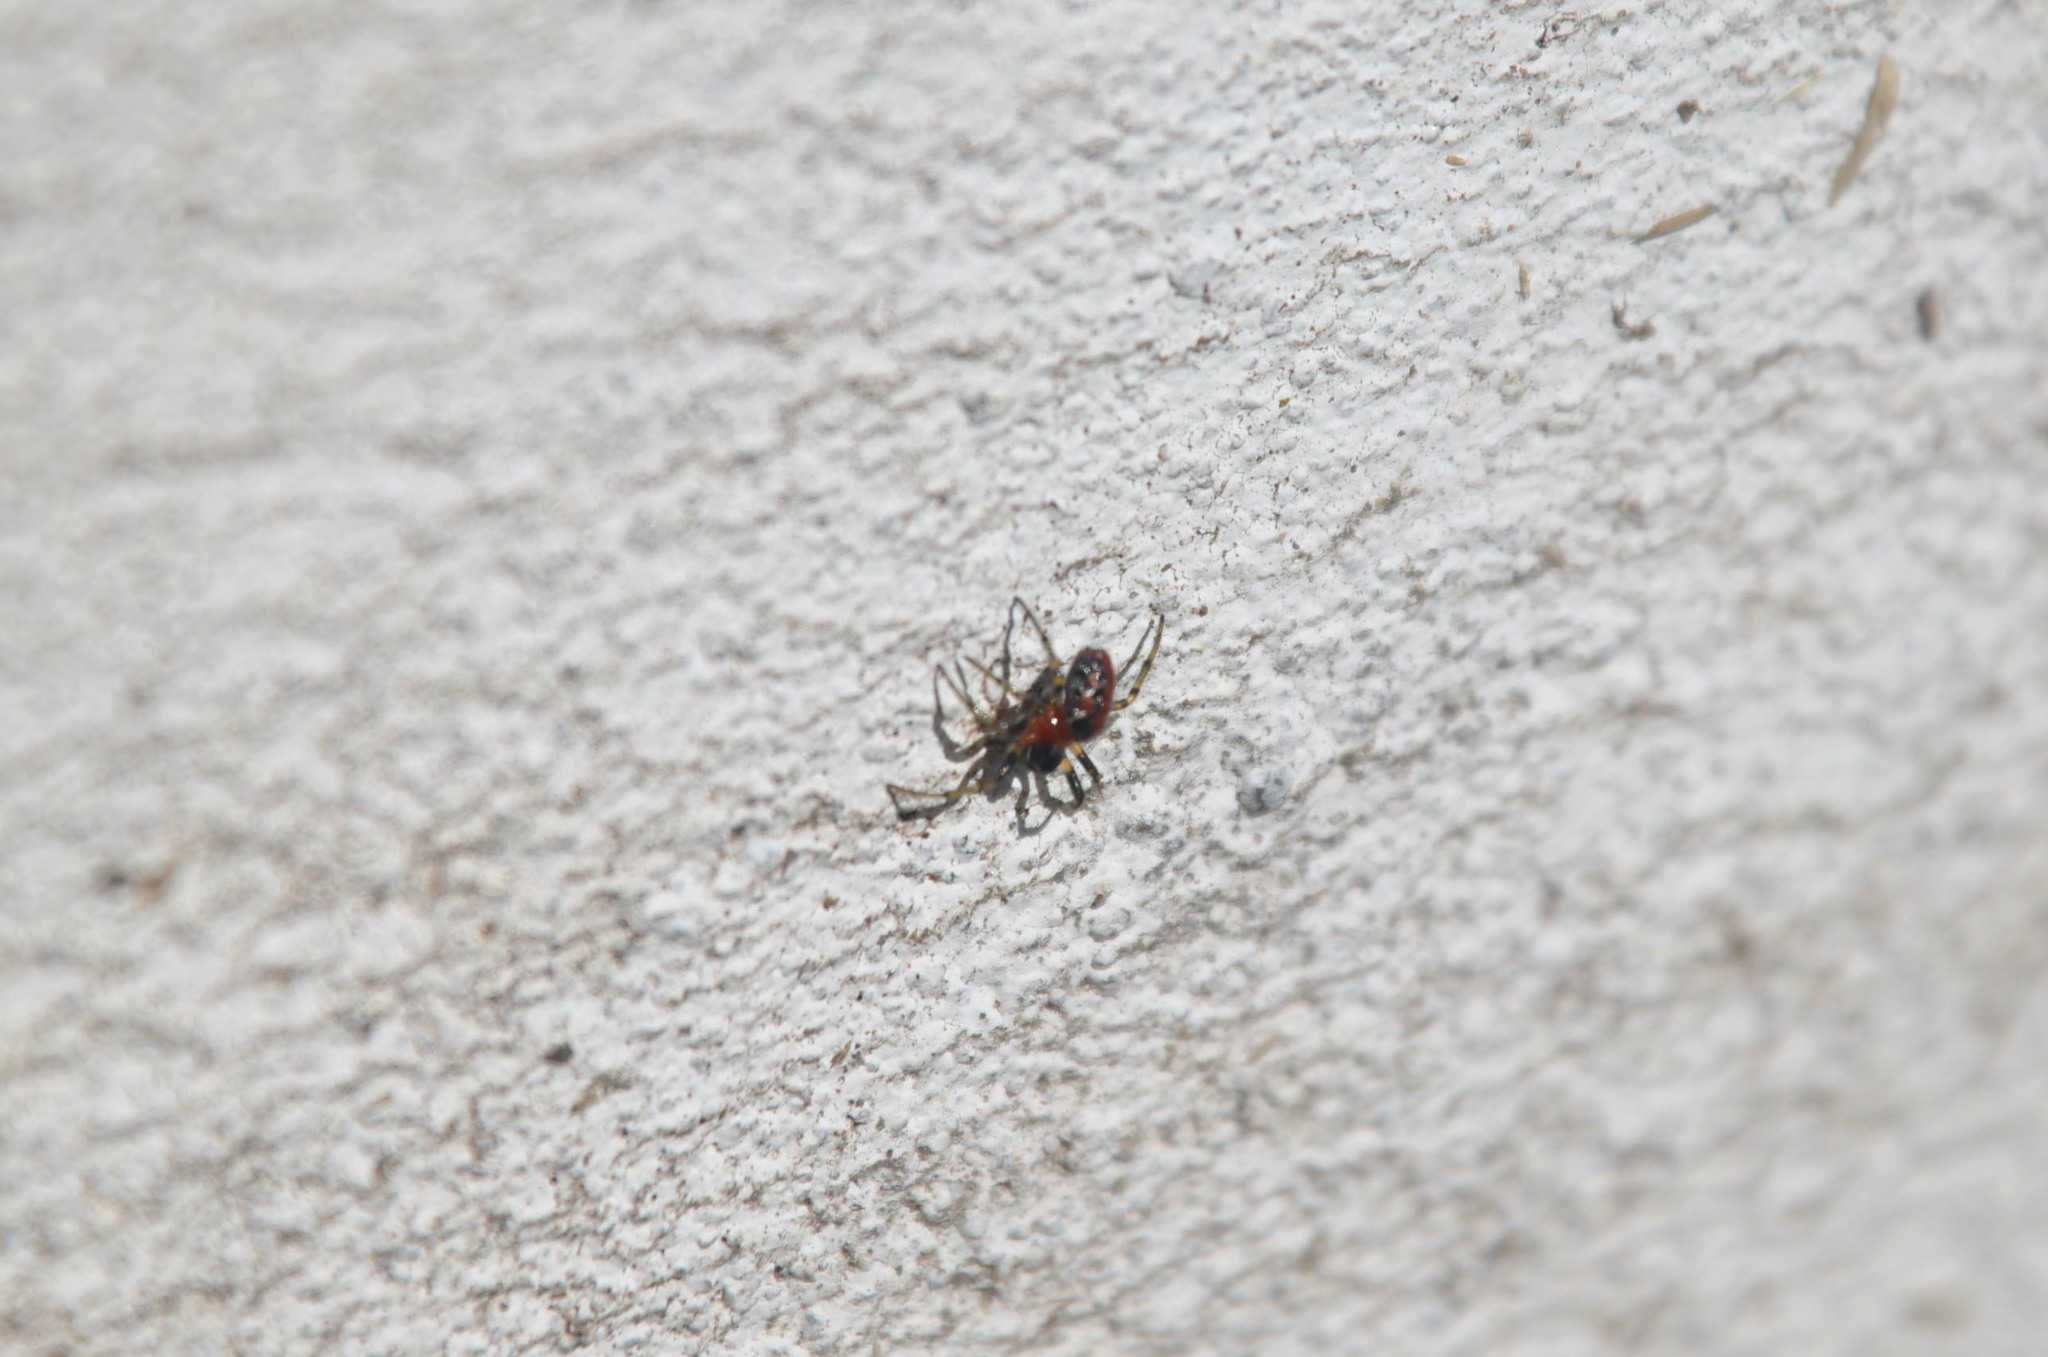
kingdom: Animalia
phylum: Arthropoda
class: Arachnida
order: Araneae
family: Araneidae
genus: Alpaida
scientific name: Alpaida versicolor
